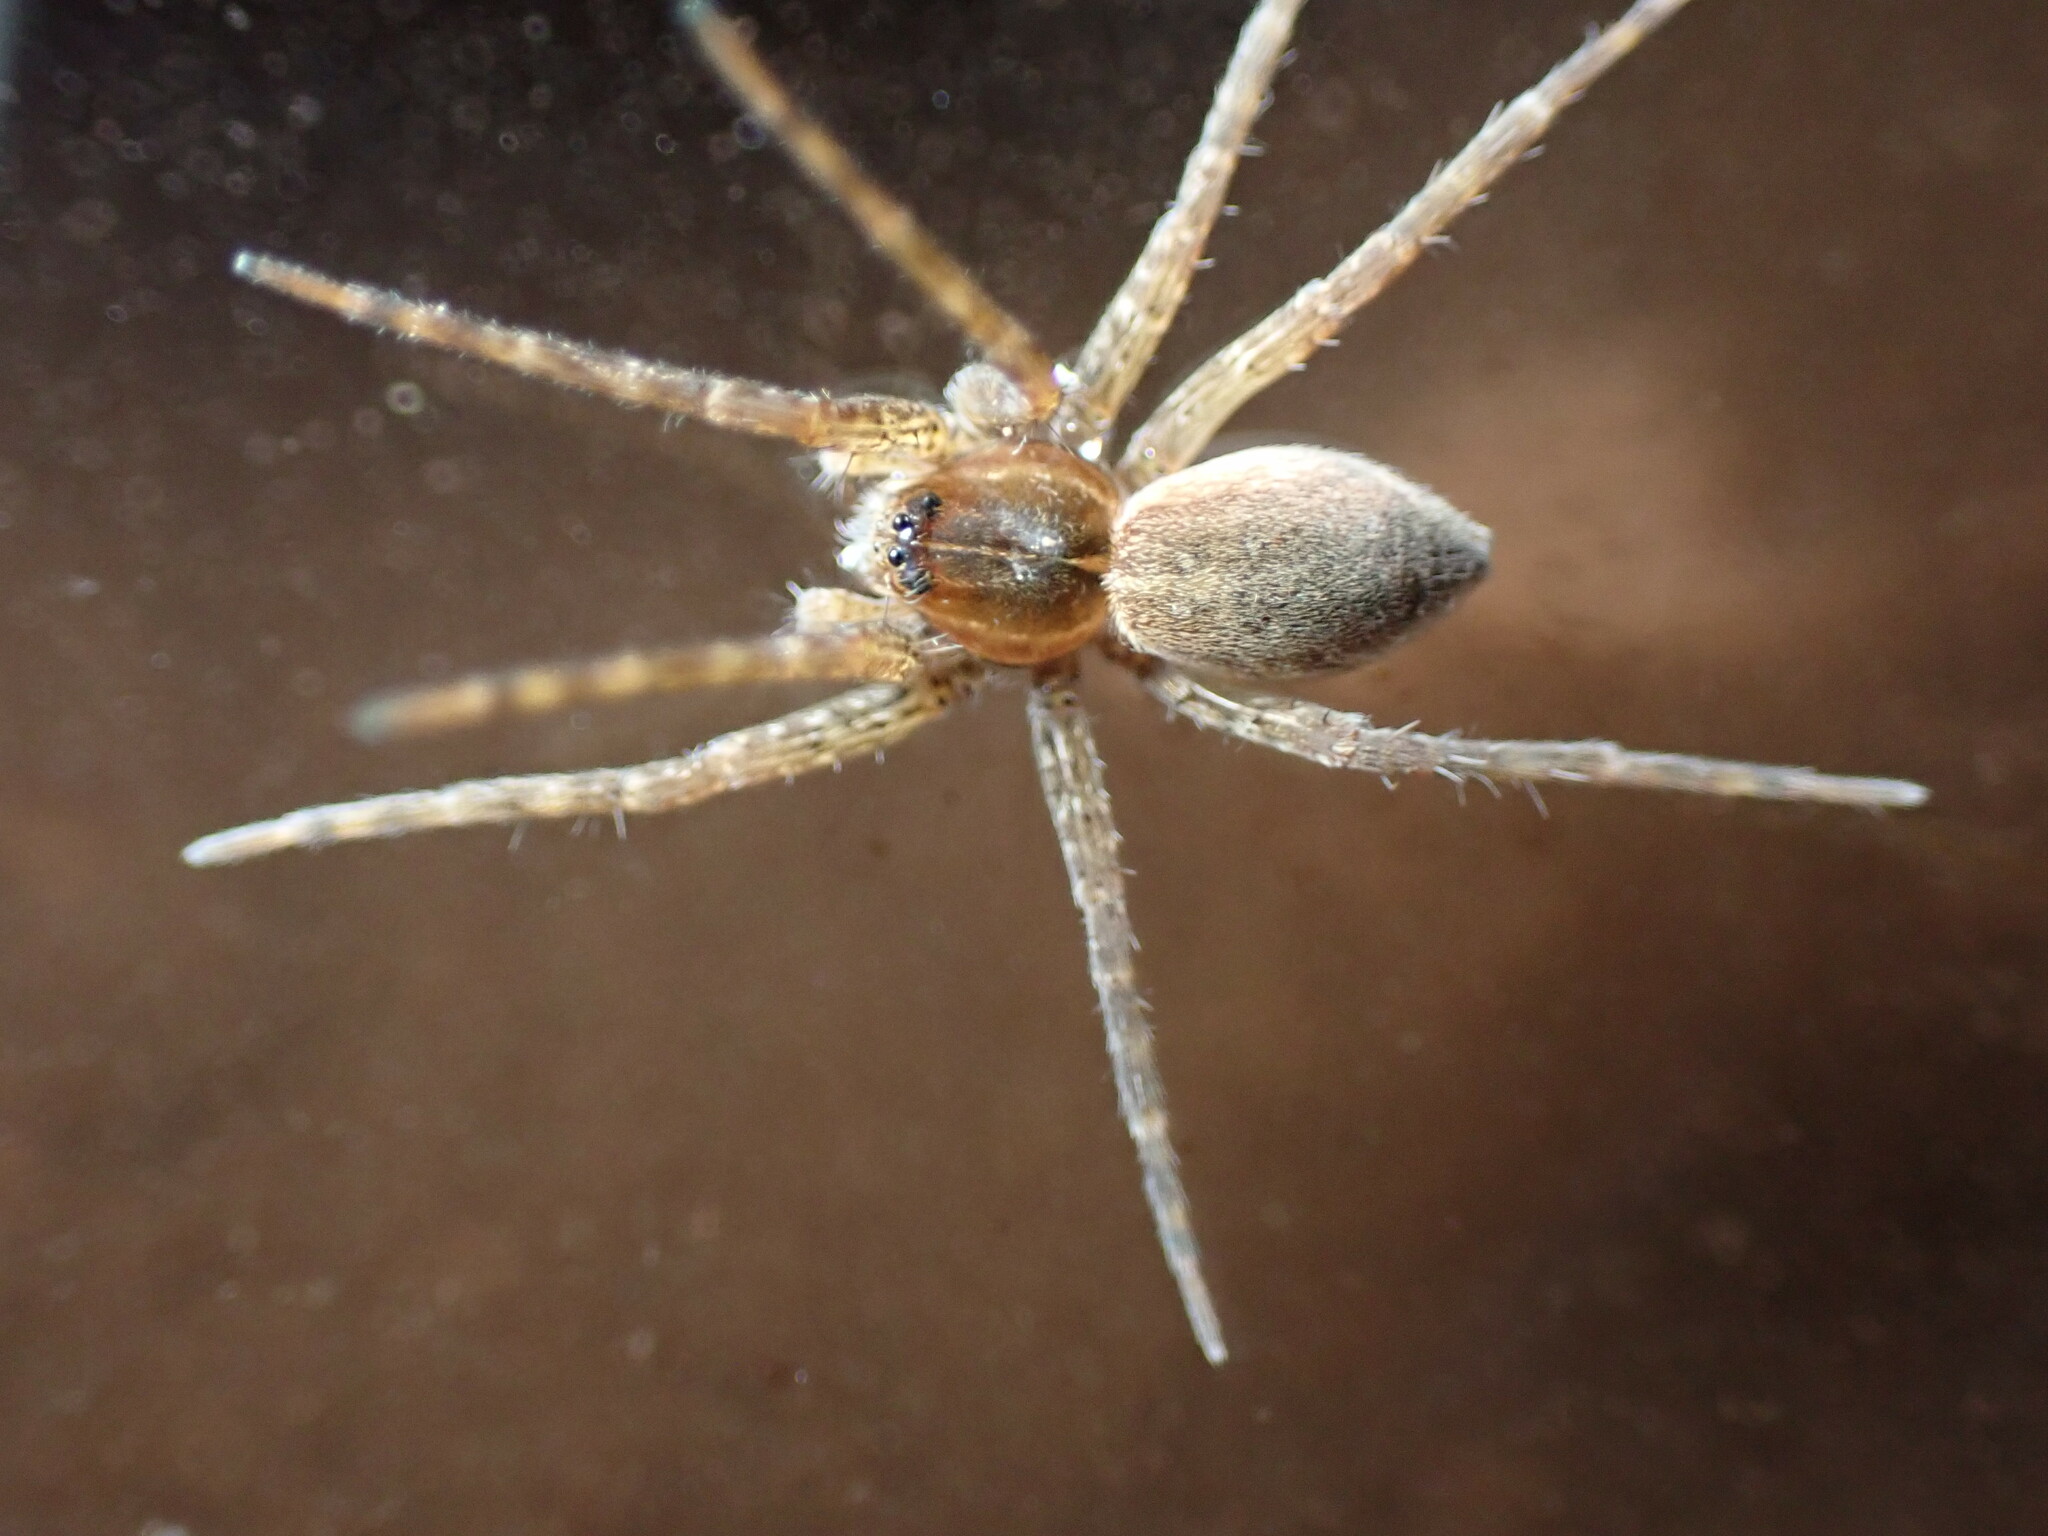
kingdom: Animalia
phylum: Arthropoda
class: Arachnida
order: Araneae
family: Pisauridae
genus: Dolomedes
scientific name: Dolomedes triton
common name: Six-spotted fishing spider
